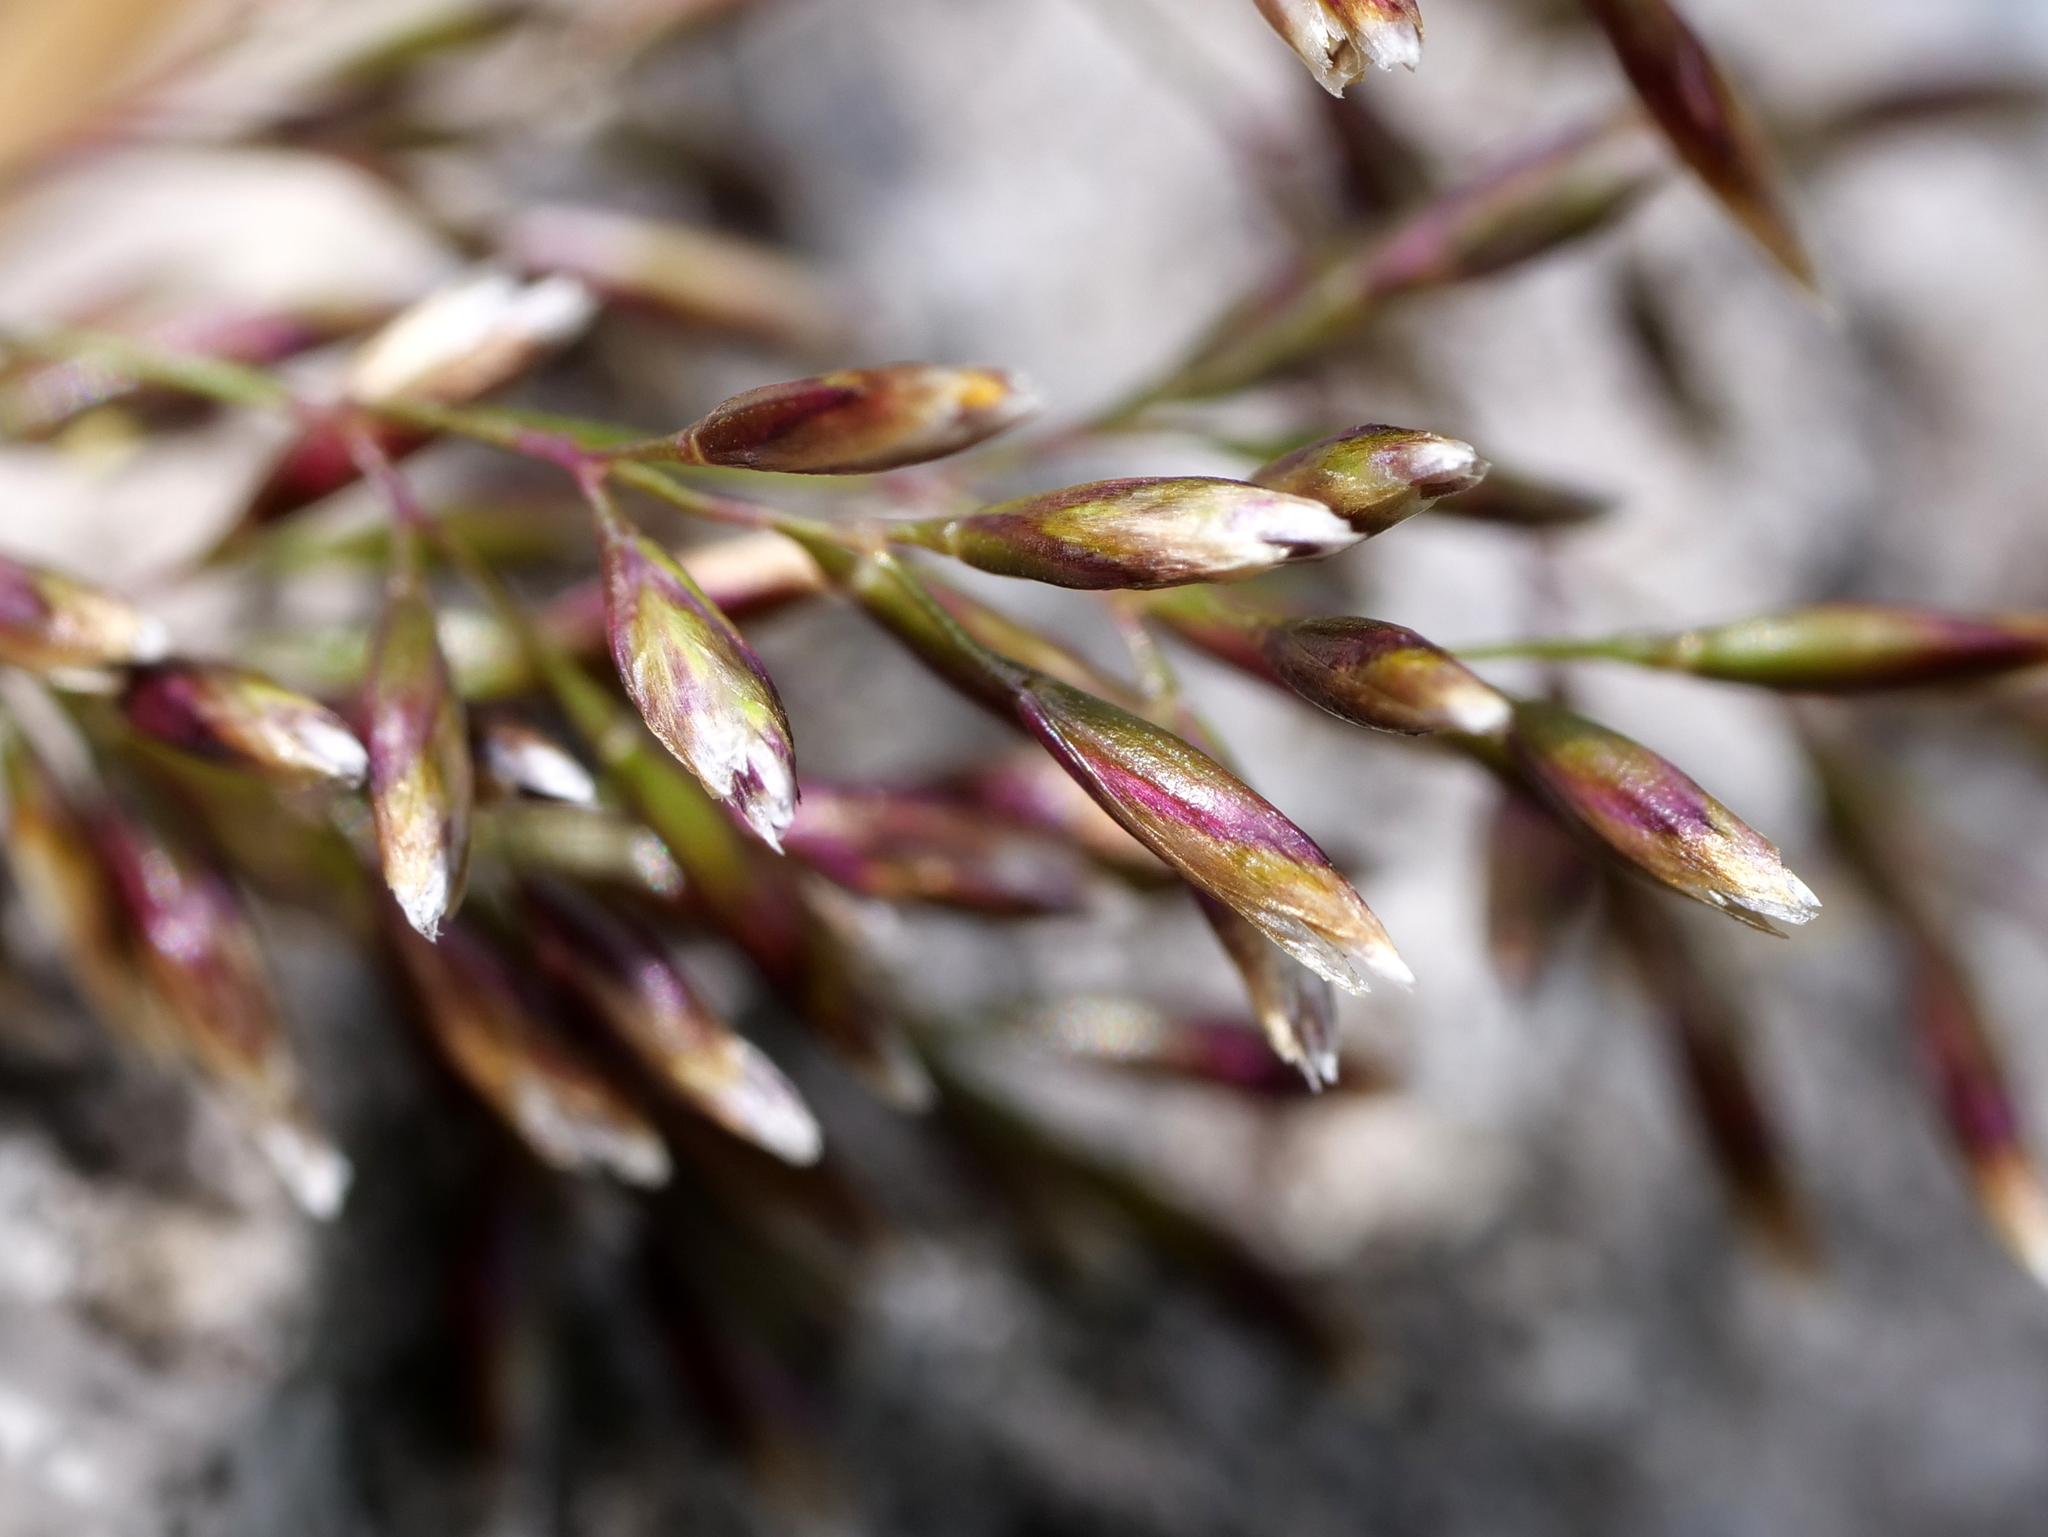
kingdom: Plantae
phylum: Tracheophyta
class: Liliopsida
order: Poales
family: Poaceae
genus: Deschampsia
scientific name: Deschampsia cespitosa
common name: Tufted hair-grass
